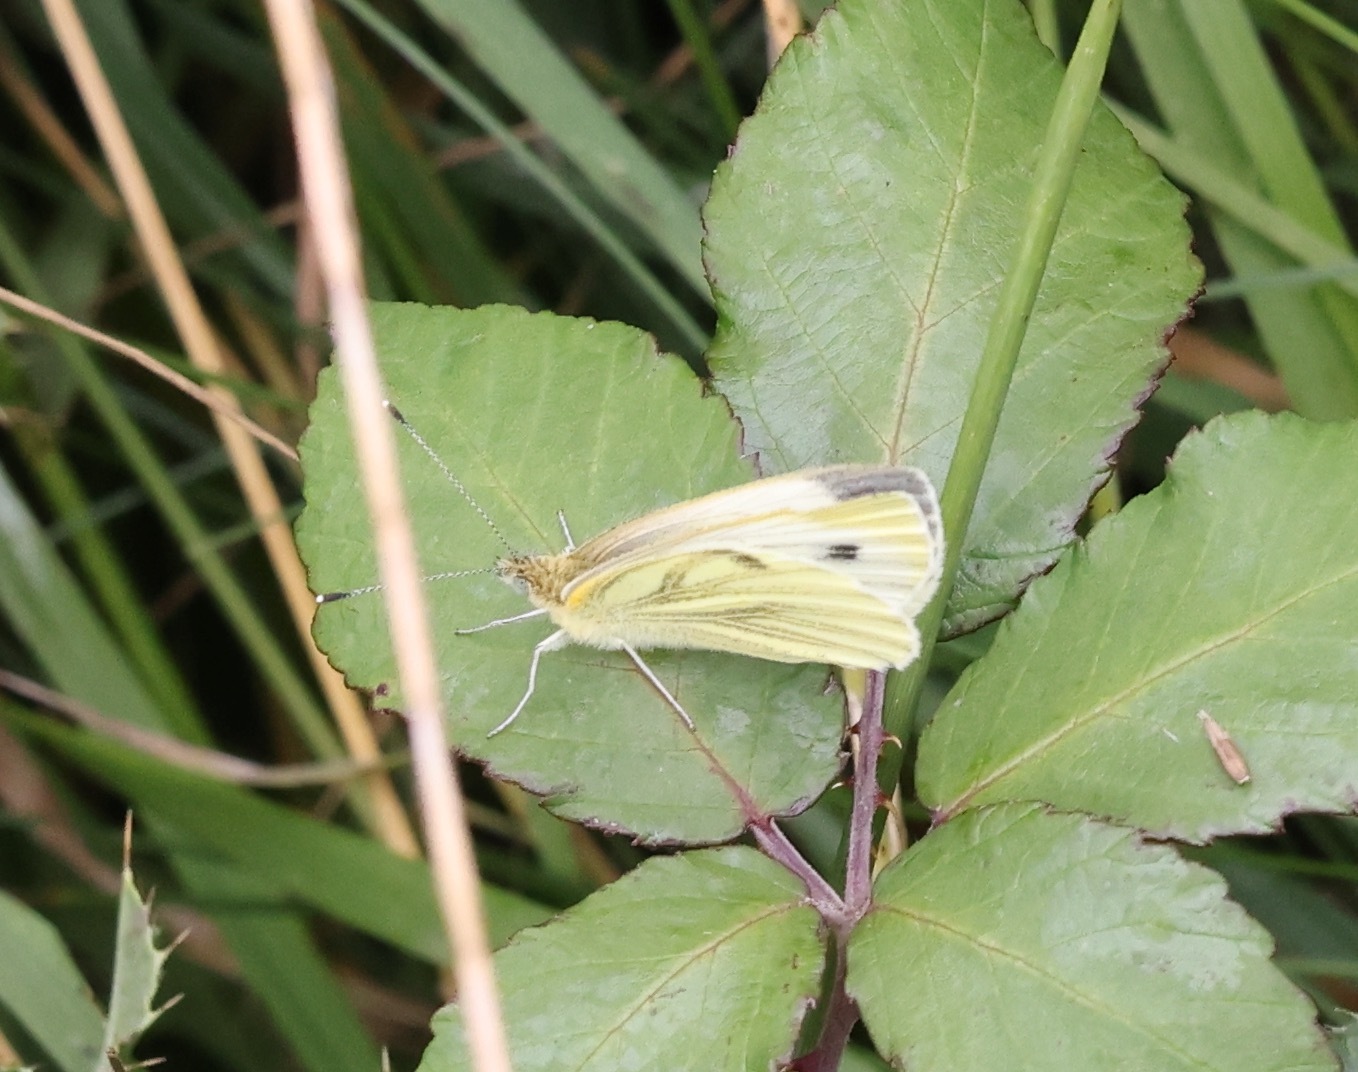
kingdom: Animalia
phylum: Arthropoda
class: Insecta
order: Lepidoptera
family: Pieridae
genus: Pieris
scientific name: Pieris napi
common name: Green-veined white
